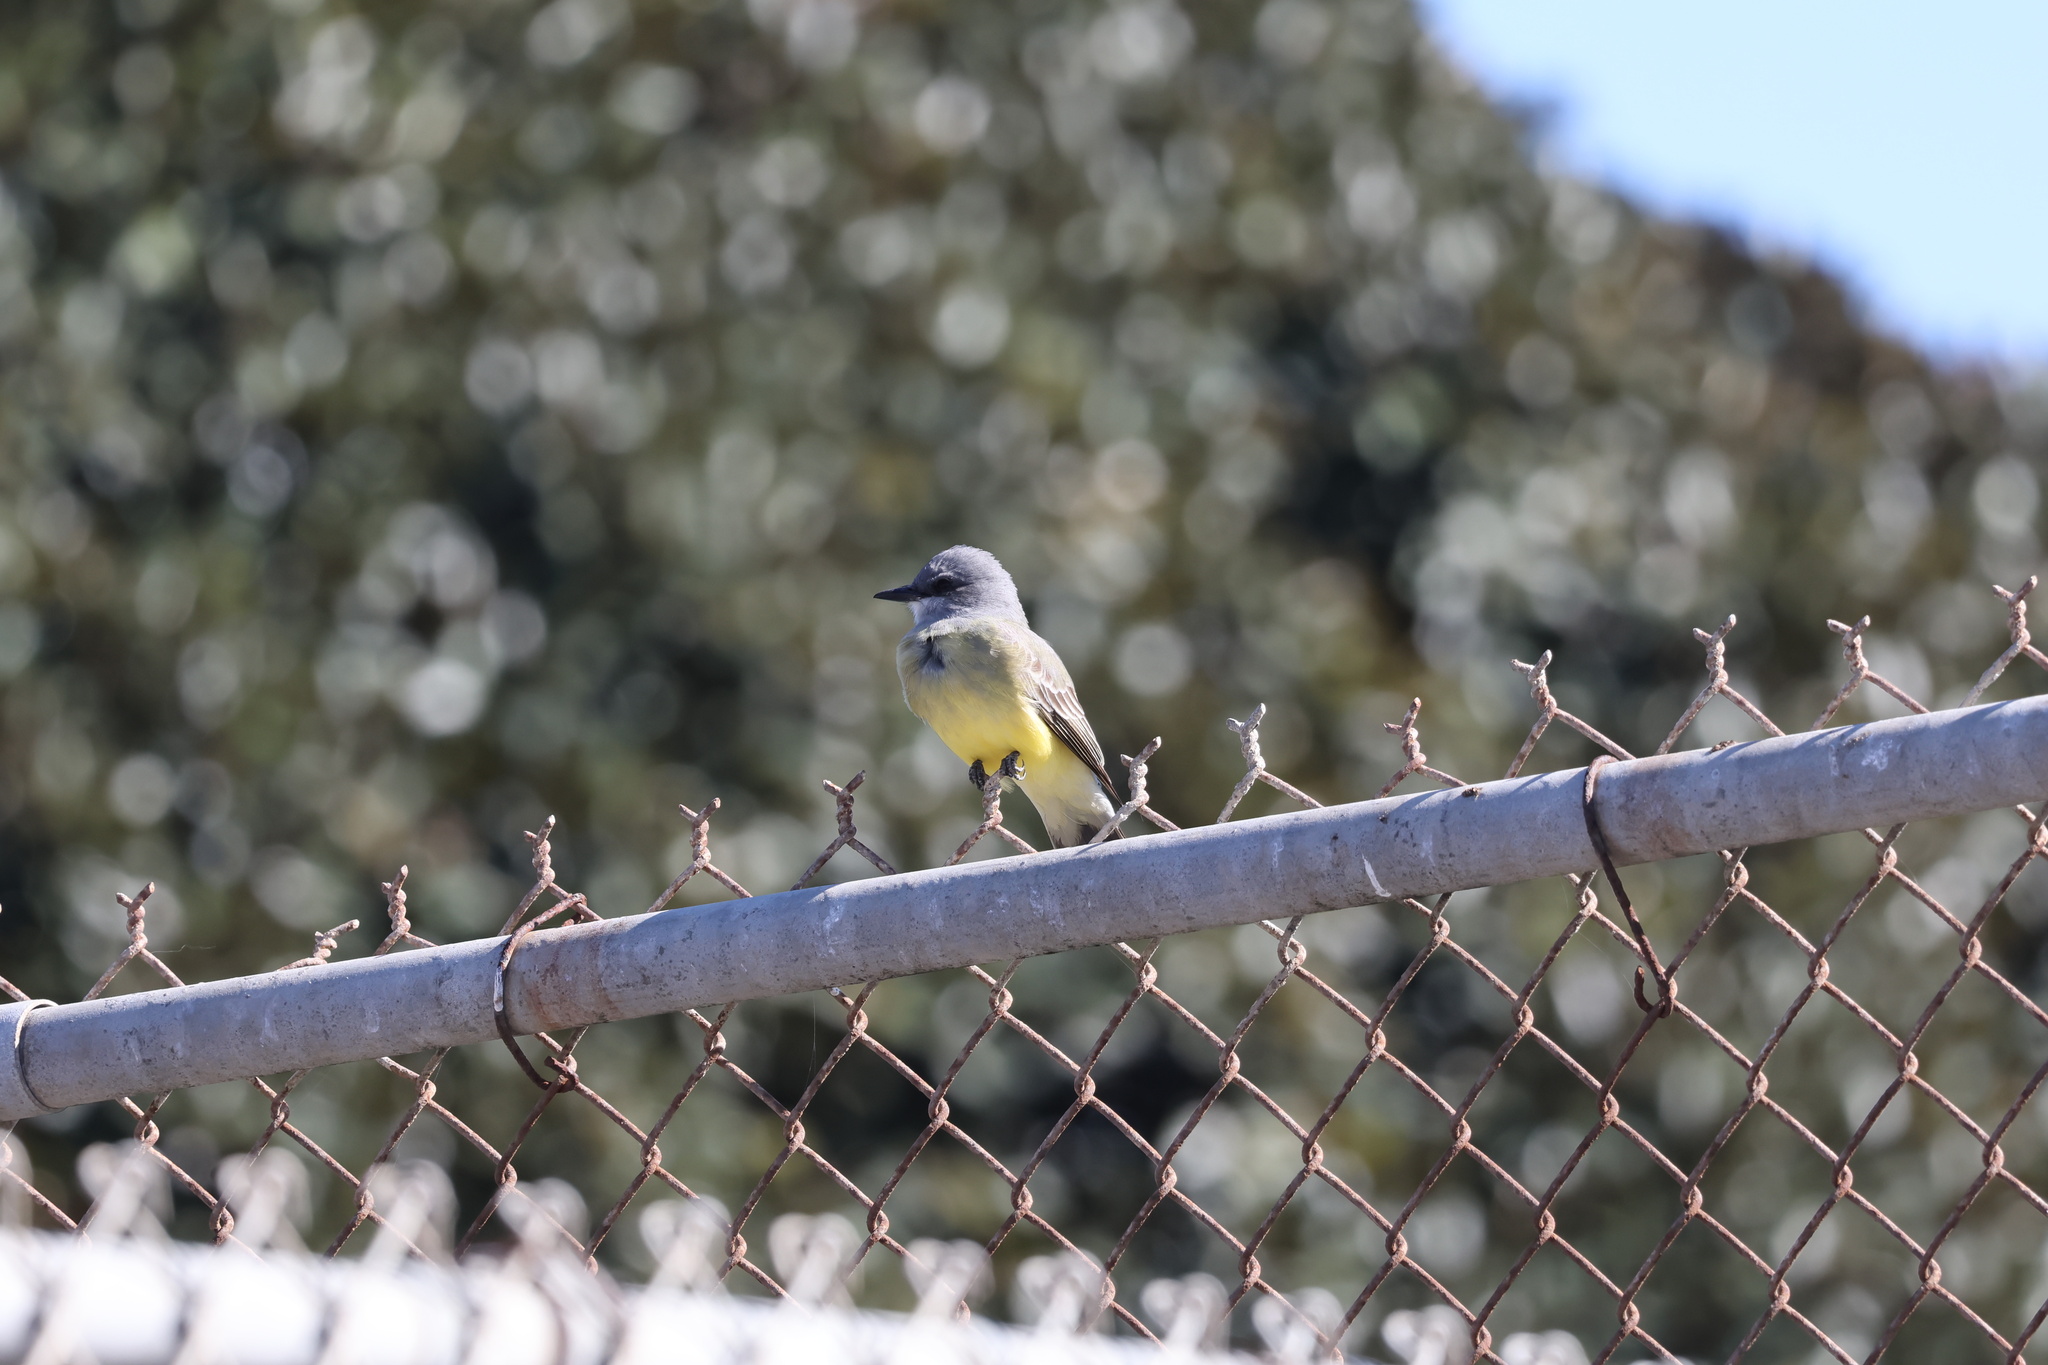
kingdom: Animalia
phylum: Chordata
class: Aves
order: Passeriformes
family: Tyrannidae
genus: Tyrannus
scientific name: Tyrannus vociferans
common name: Cassin's kingbird
